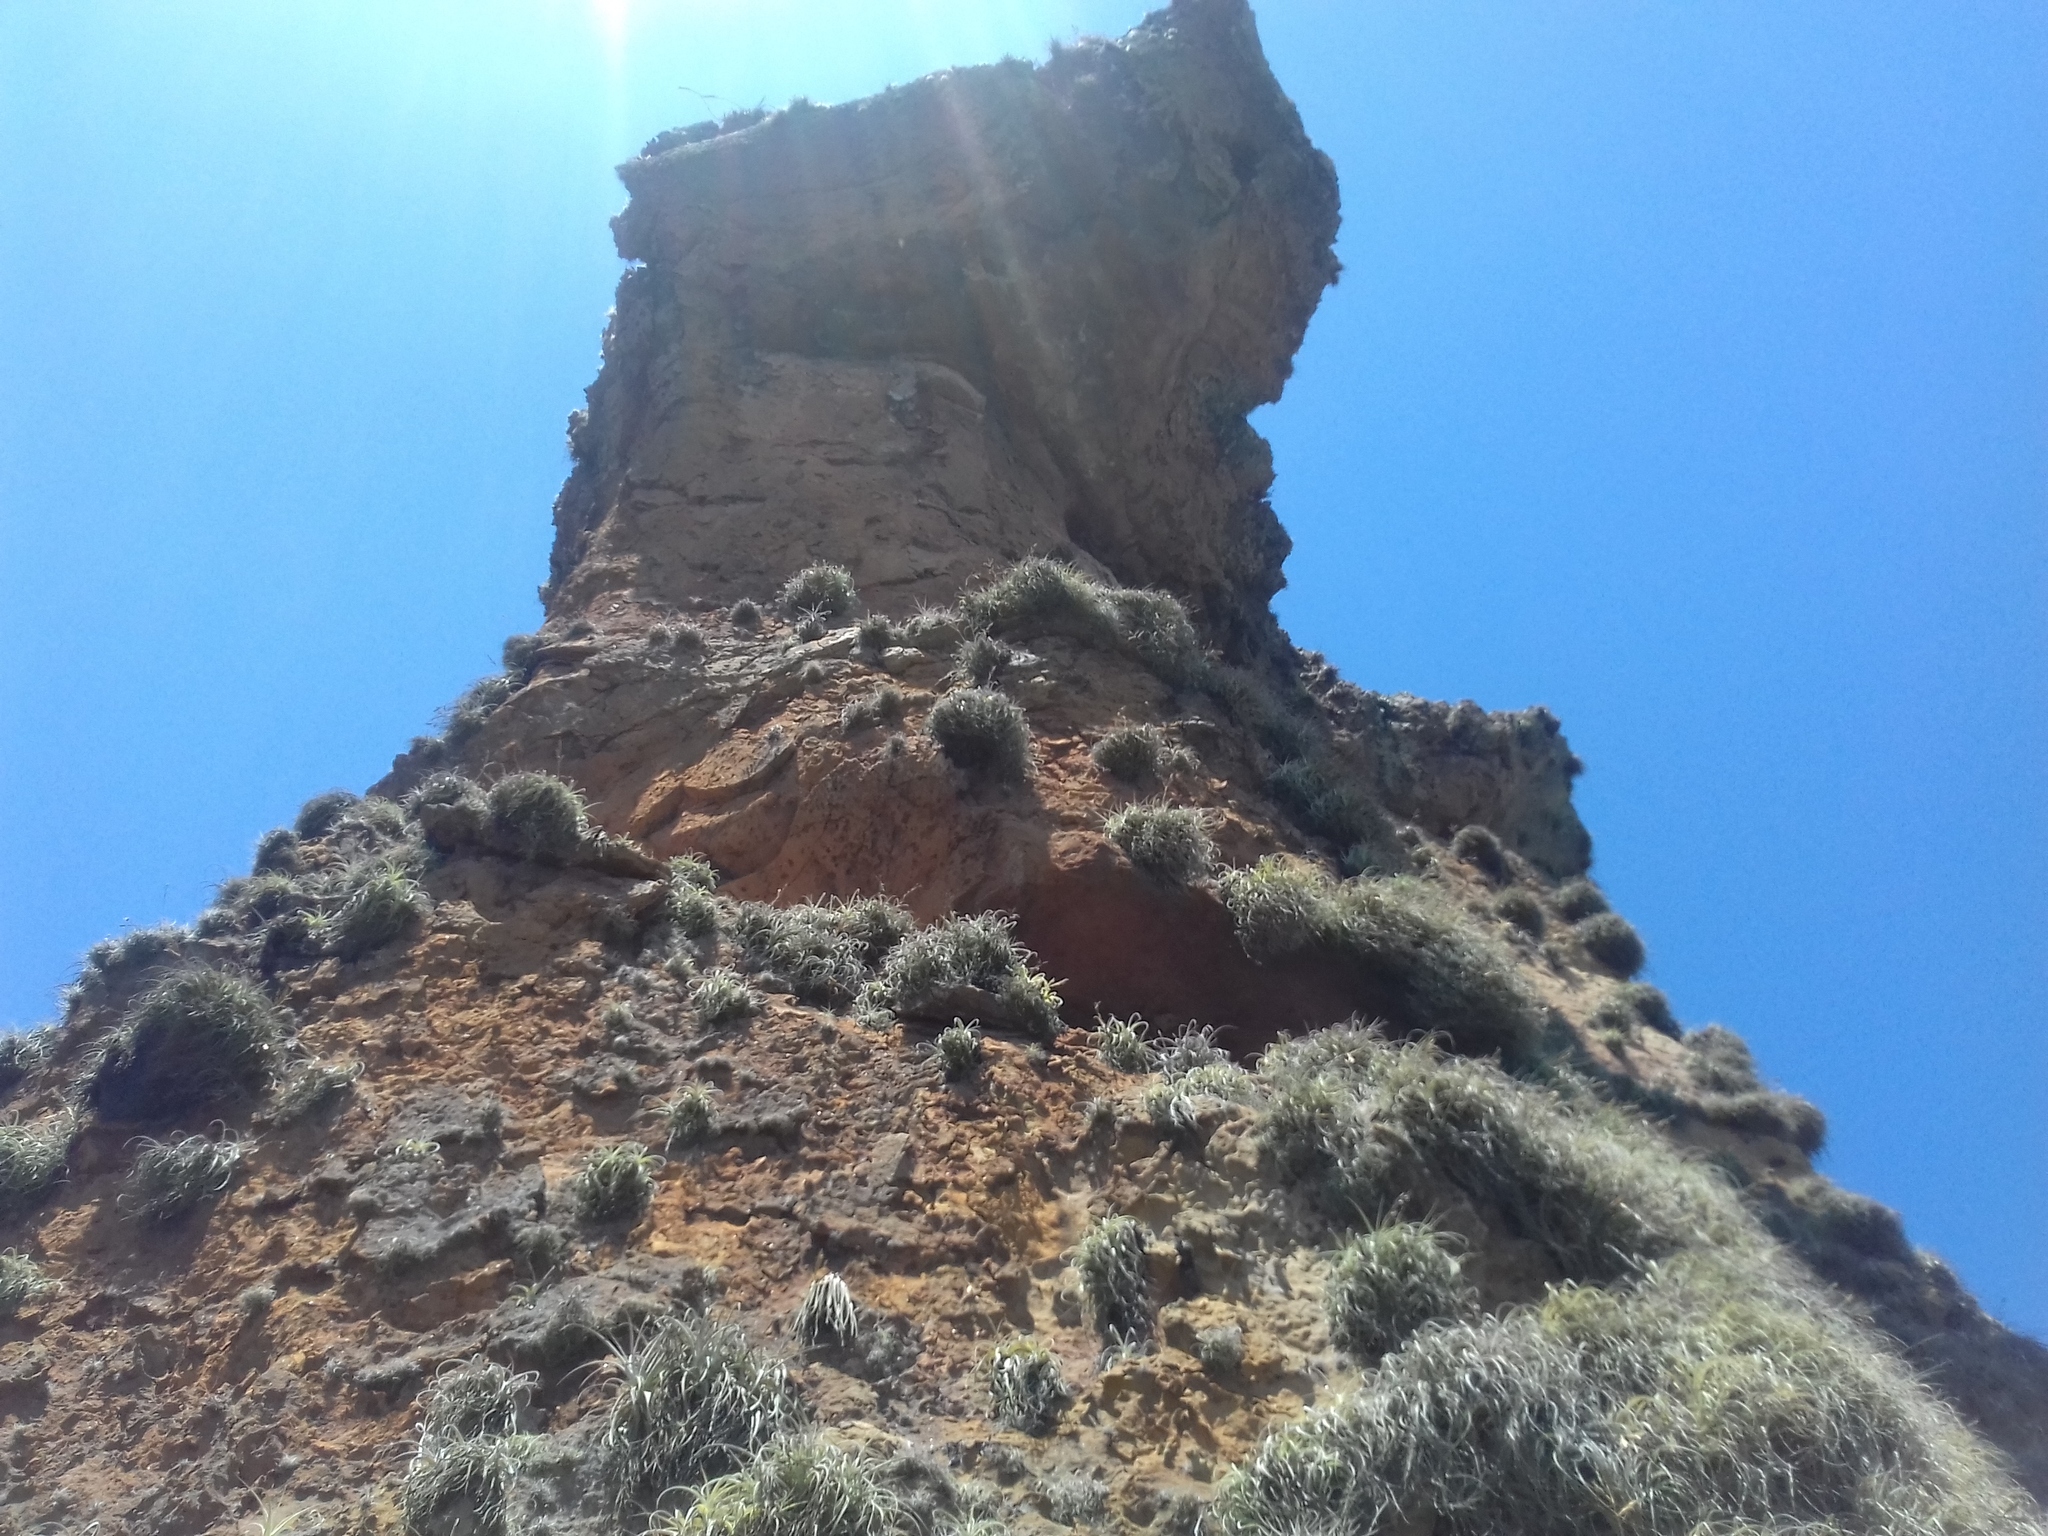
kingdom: Plantae
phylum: Tracheophyta
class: Liliopsida
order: Poales
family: Bromeliaceae
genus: Tillandsia
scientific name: Tillandsia lorentziana
